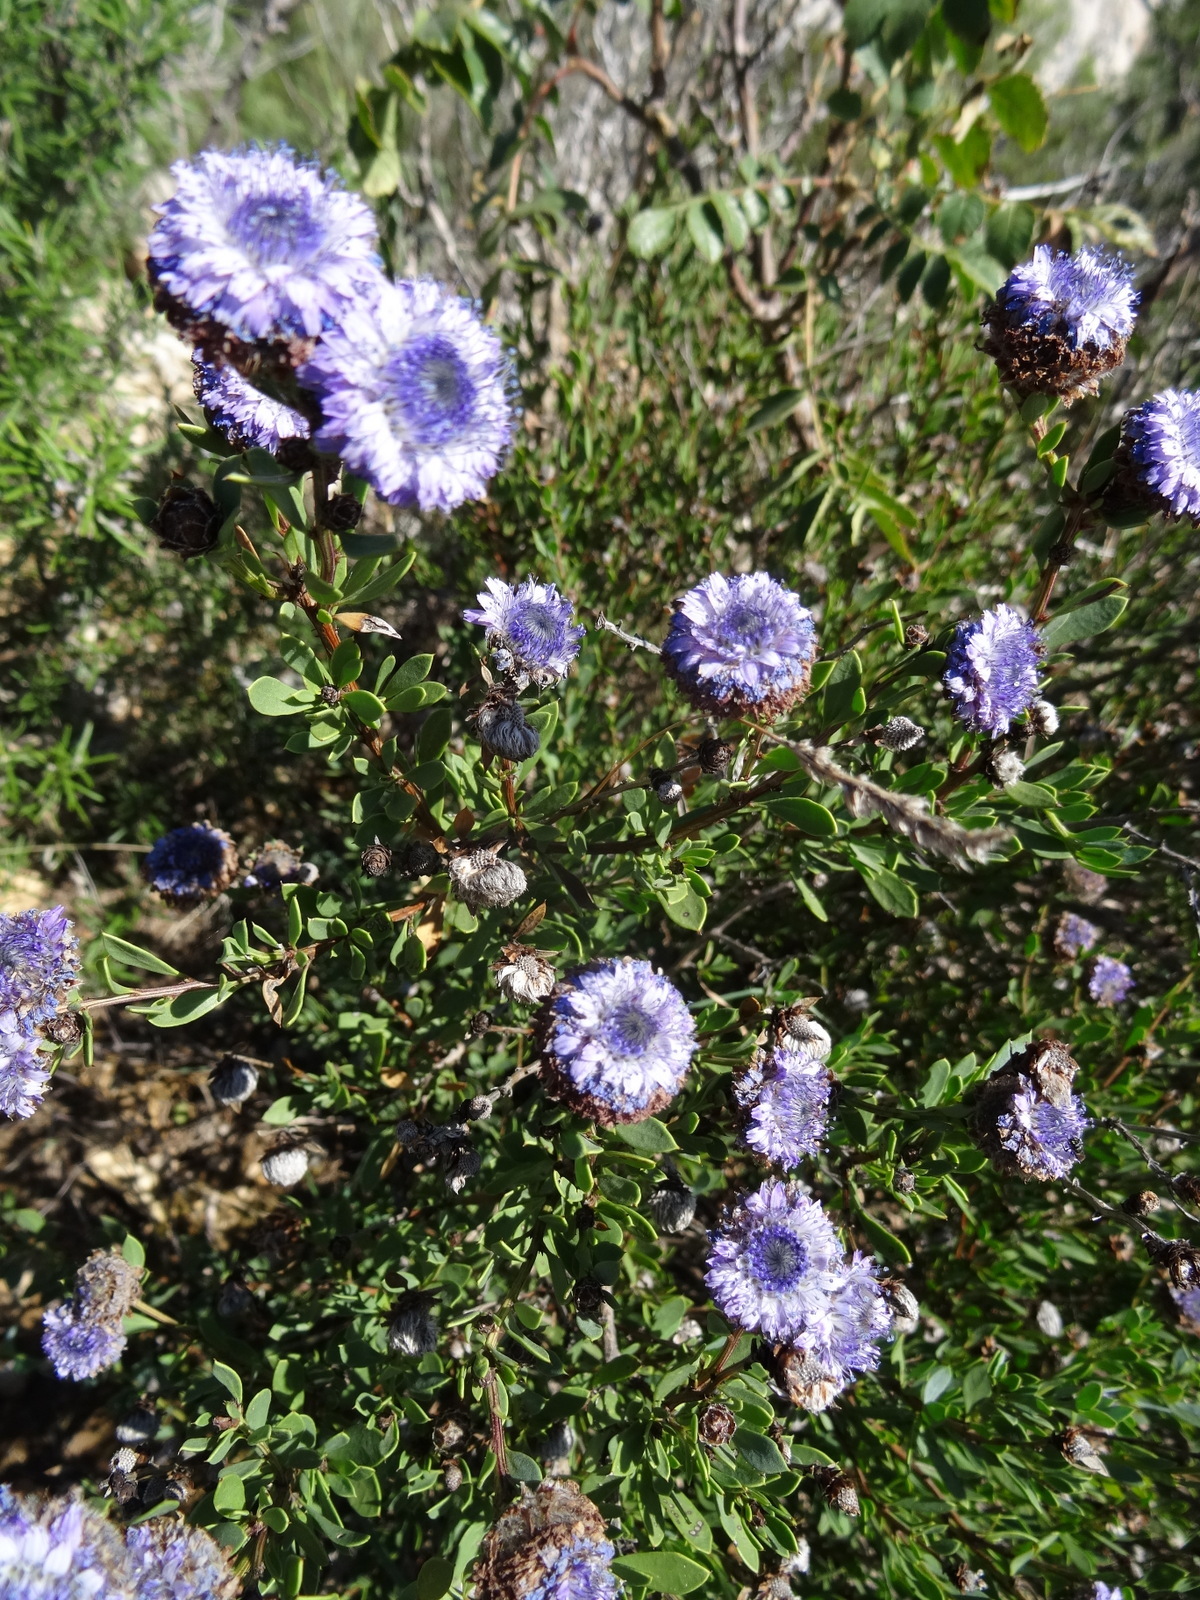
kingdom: Plantae
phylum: Tracheophyta
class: Magnoliopsida
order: Lamiales
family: Plantaginaceae
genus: Globularia
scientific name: Globularia alypum
